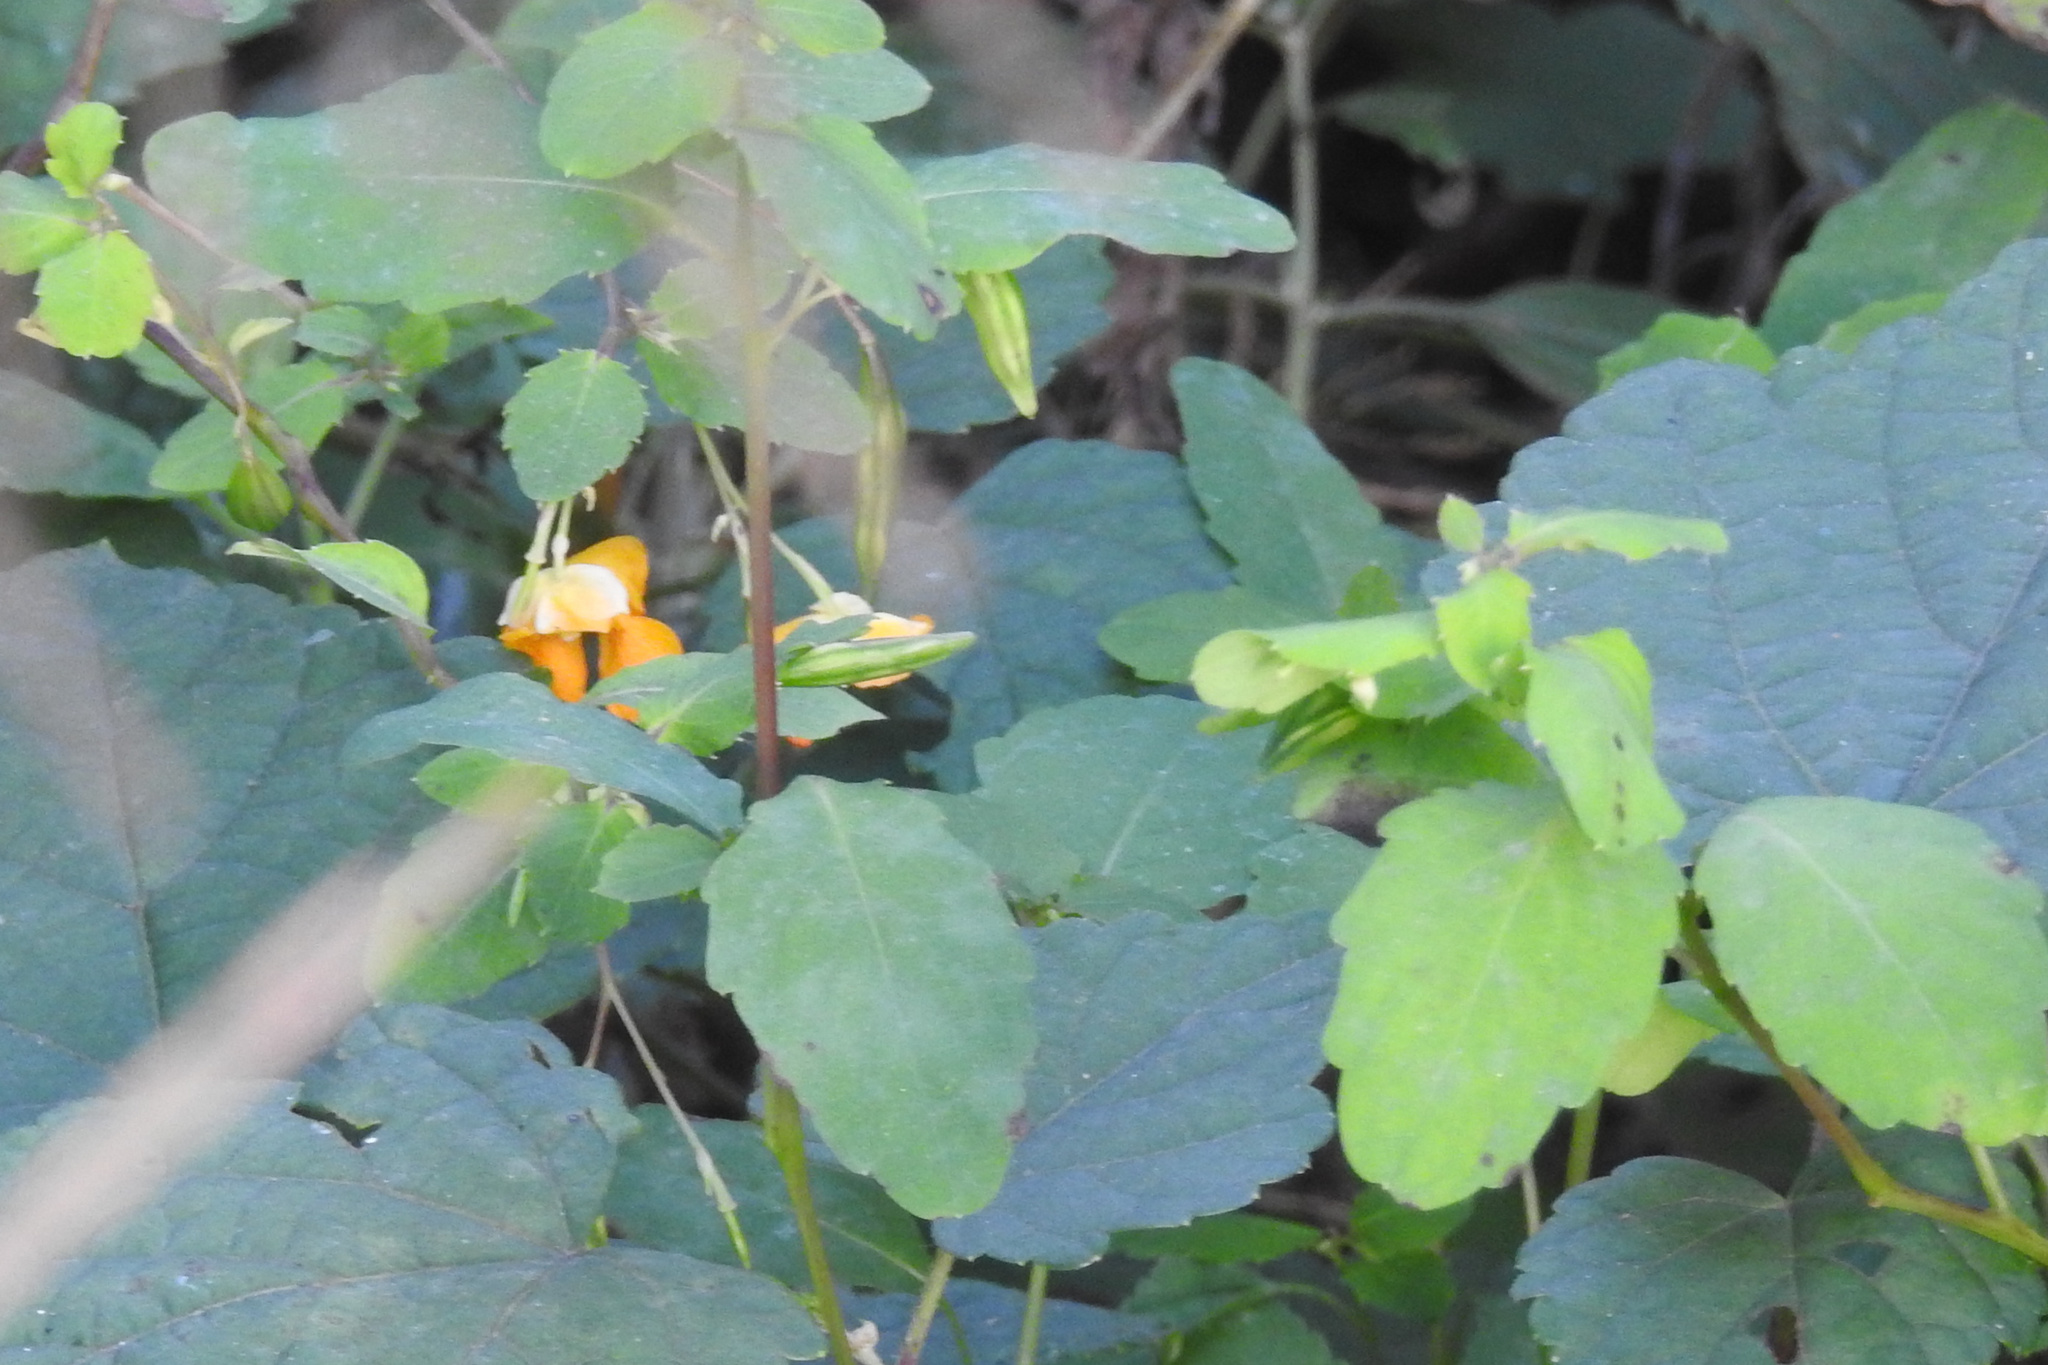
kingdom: Plantae
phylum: Tracheophyta
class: Magnoliopsida
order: Ericales
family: Balsaminaceae
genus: Impatiens
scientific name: Impatiens capensis
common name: Orange balsam
